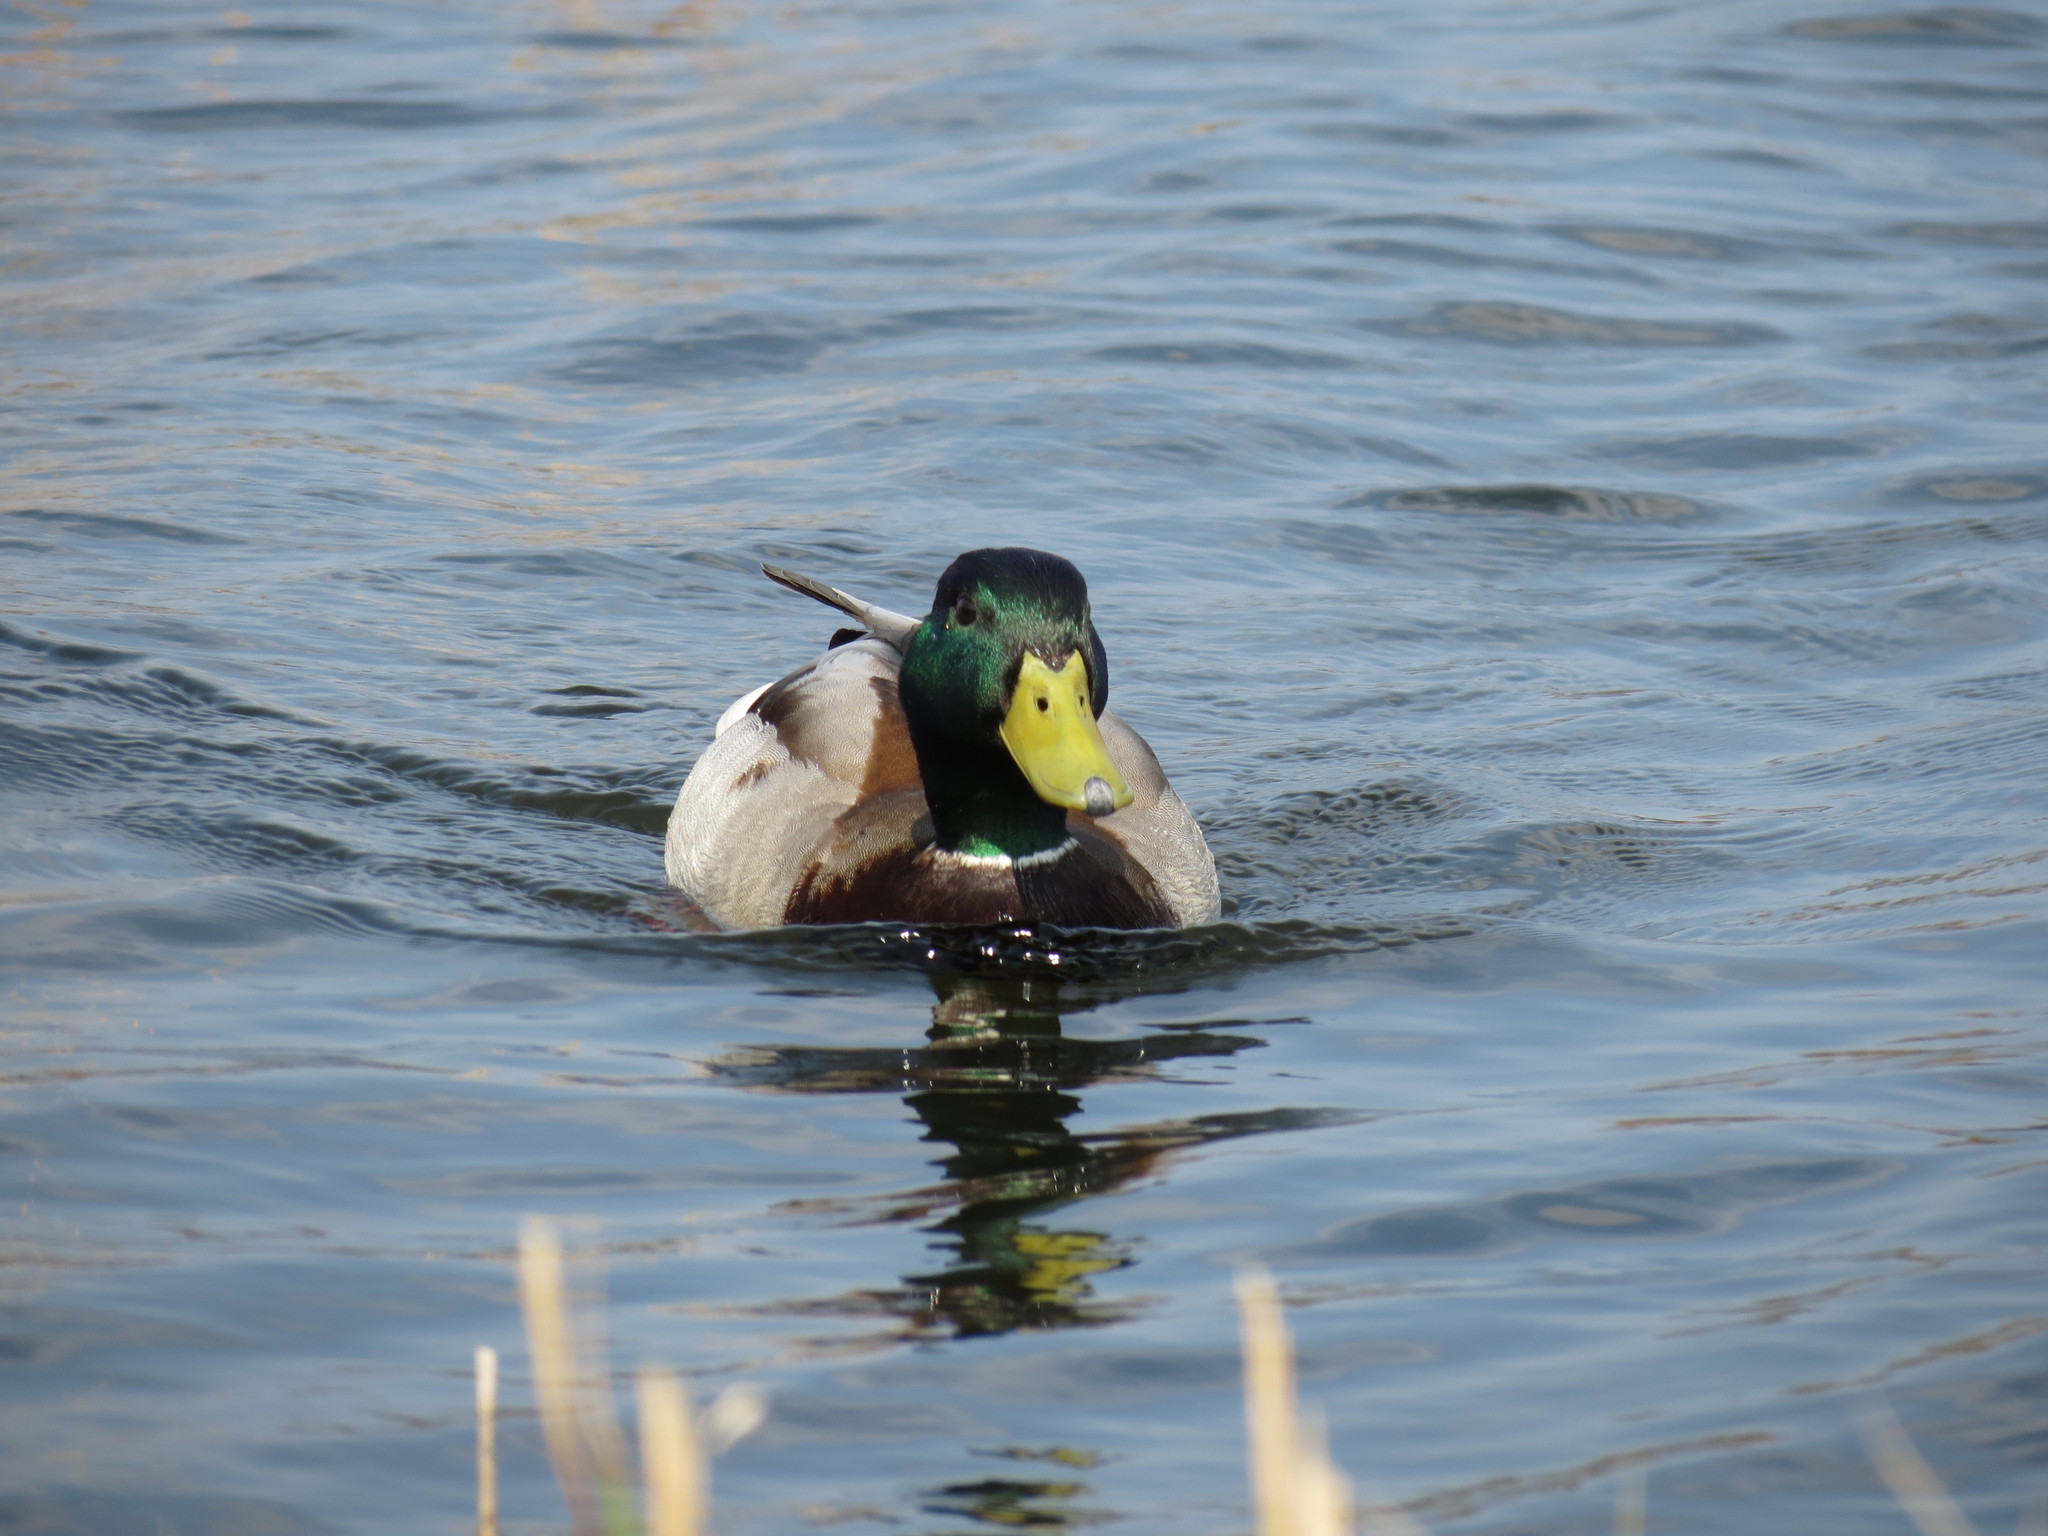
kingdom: Animalia
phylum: Chordata
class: Aves
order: Anseriformes
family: Anatidae
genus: Anas
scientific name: Anas platyrhynchos
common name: Mallard
